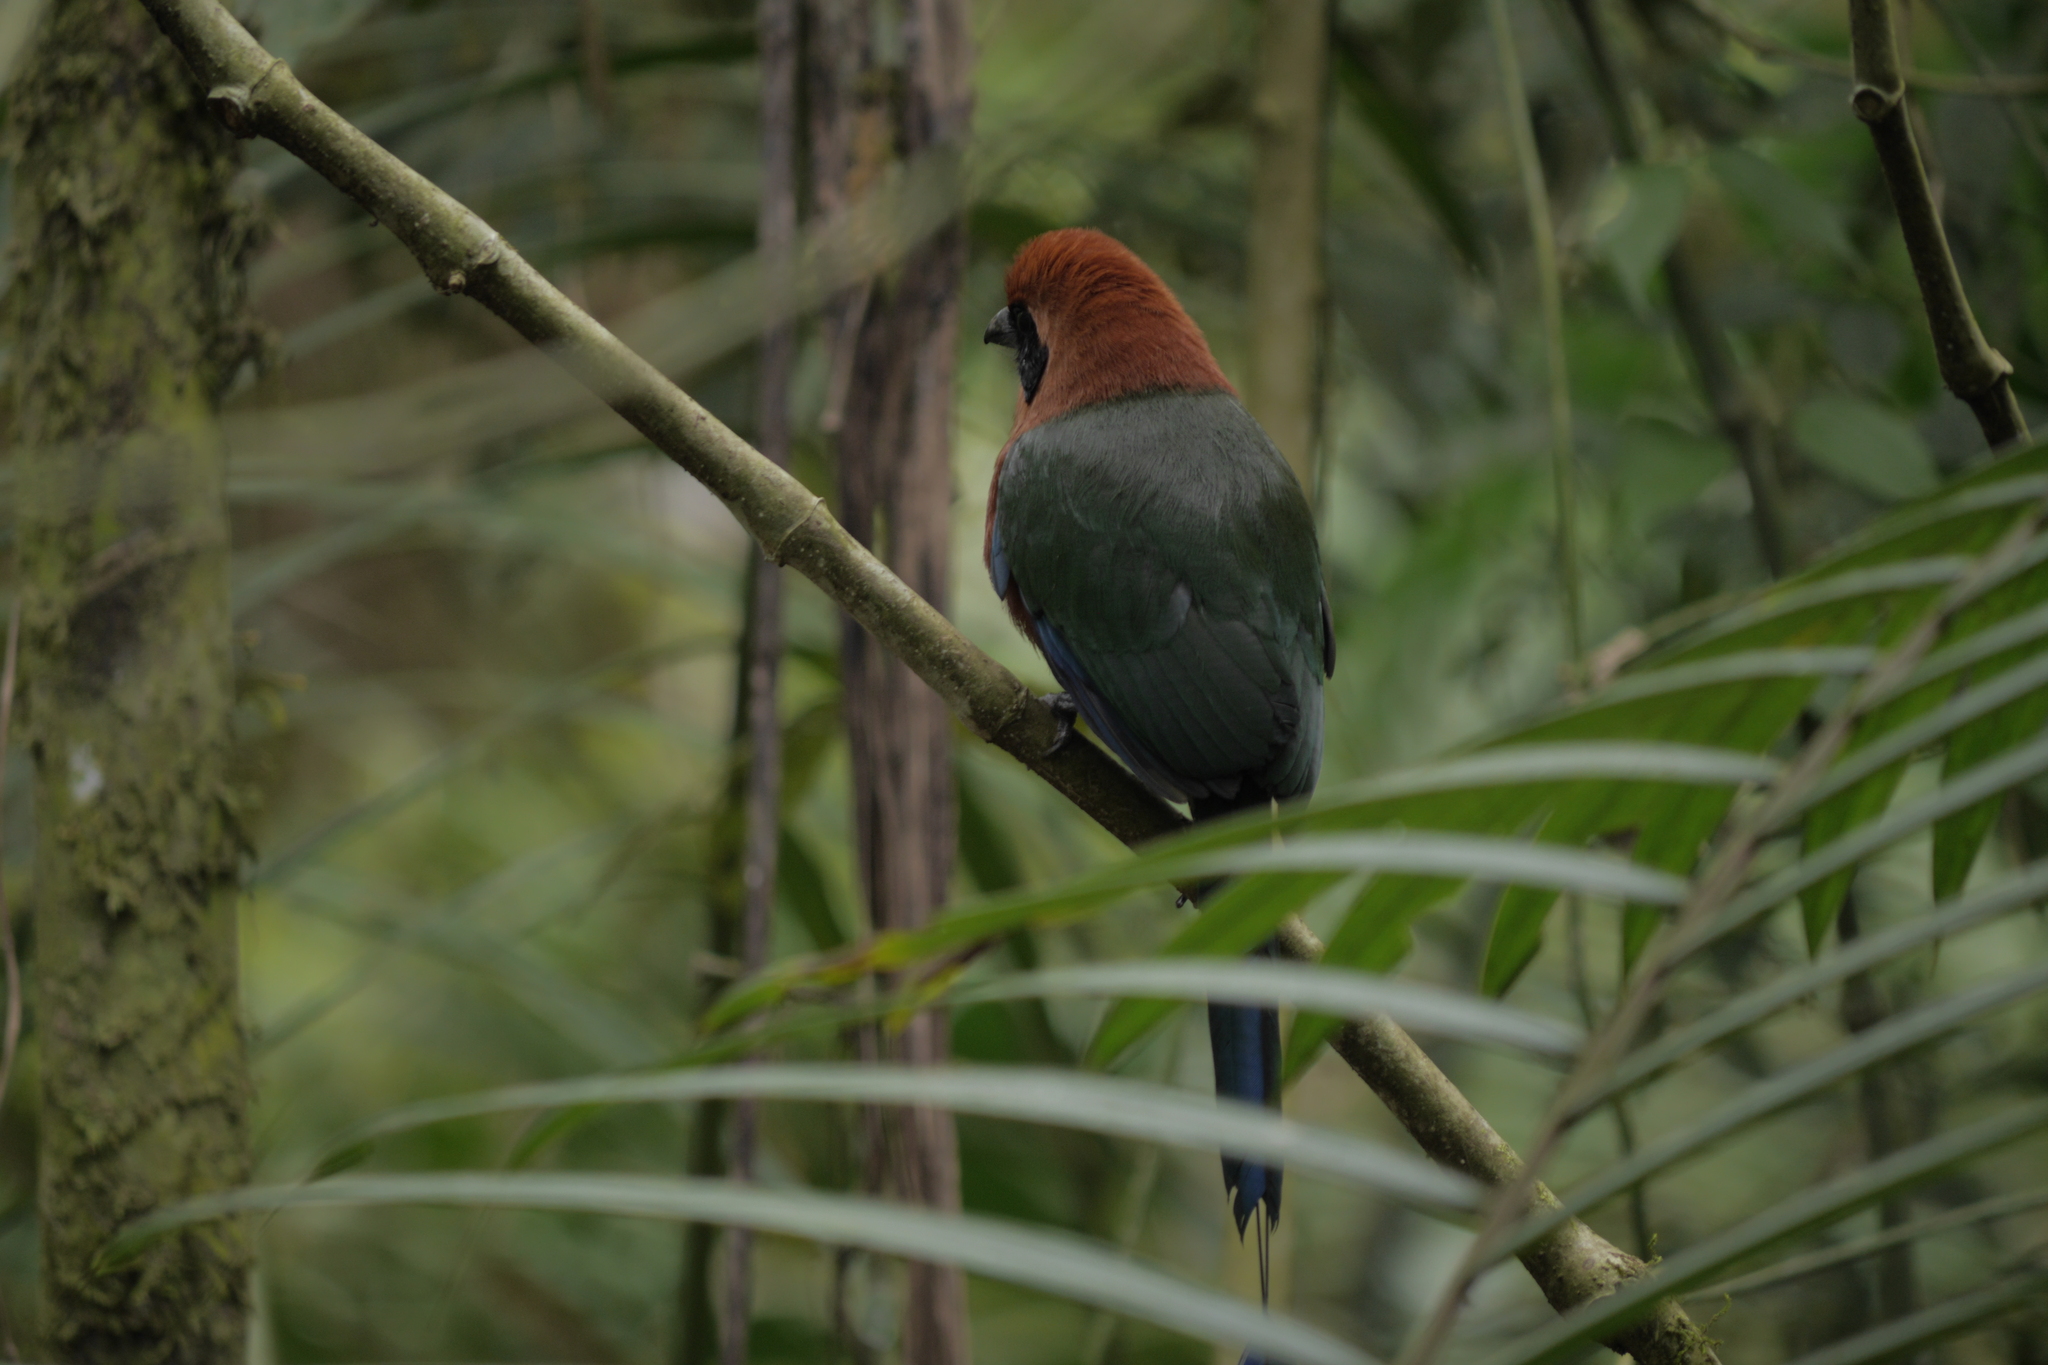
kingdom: Animalia
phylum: Chordata
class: Aves
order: Coraciiformes
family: Momotidae
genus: Baryphthengus
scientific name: Baryphthengus martii
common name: Rufous motmot
